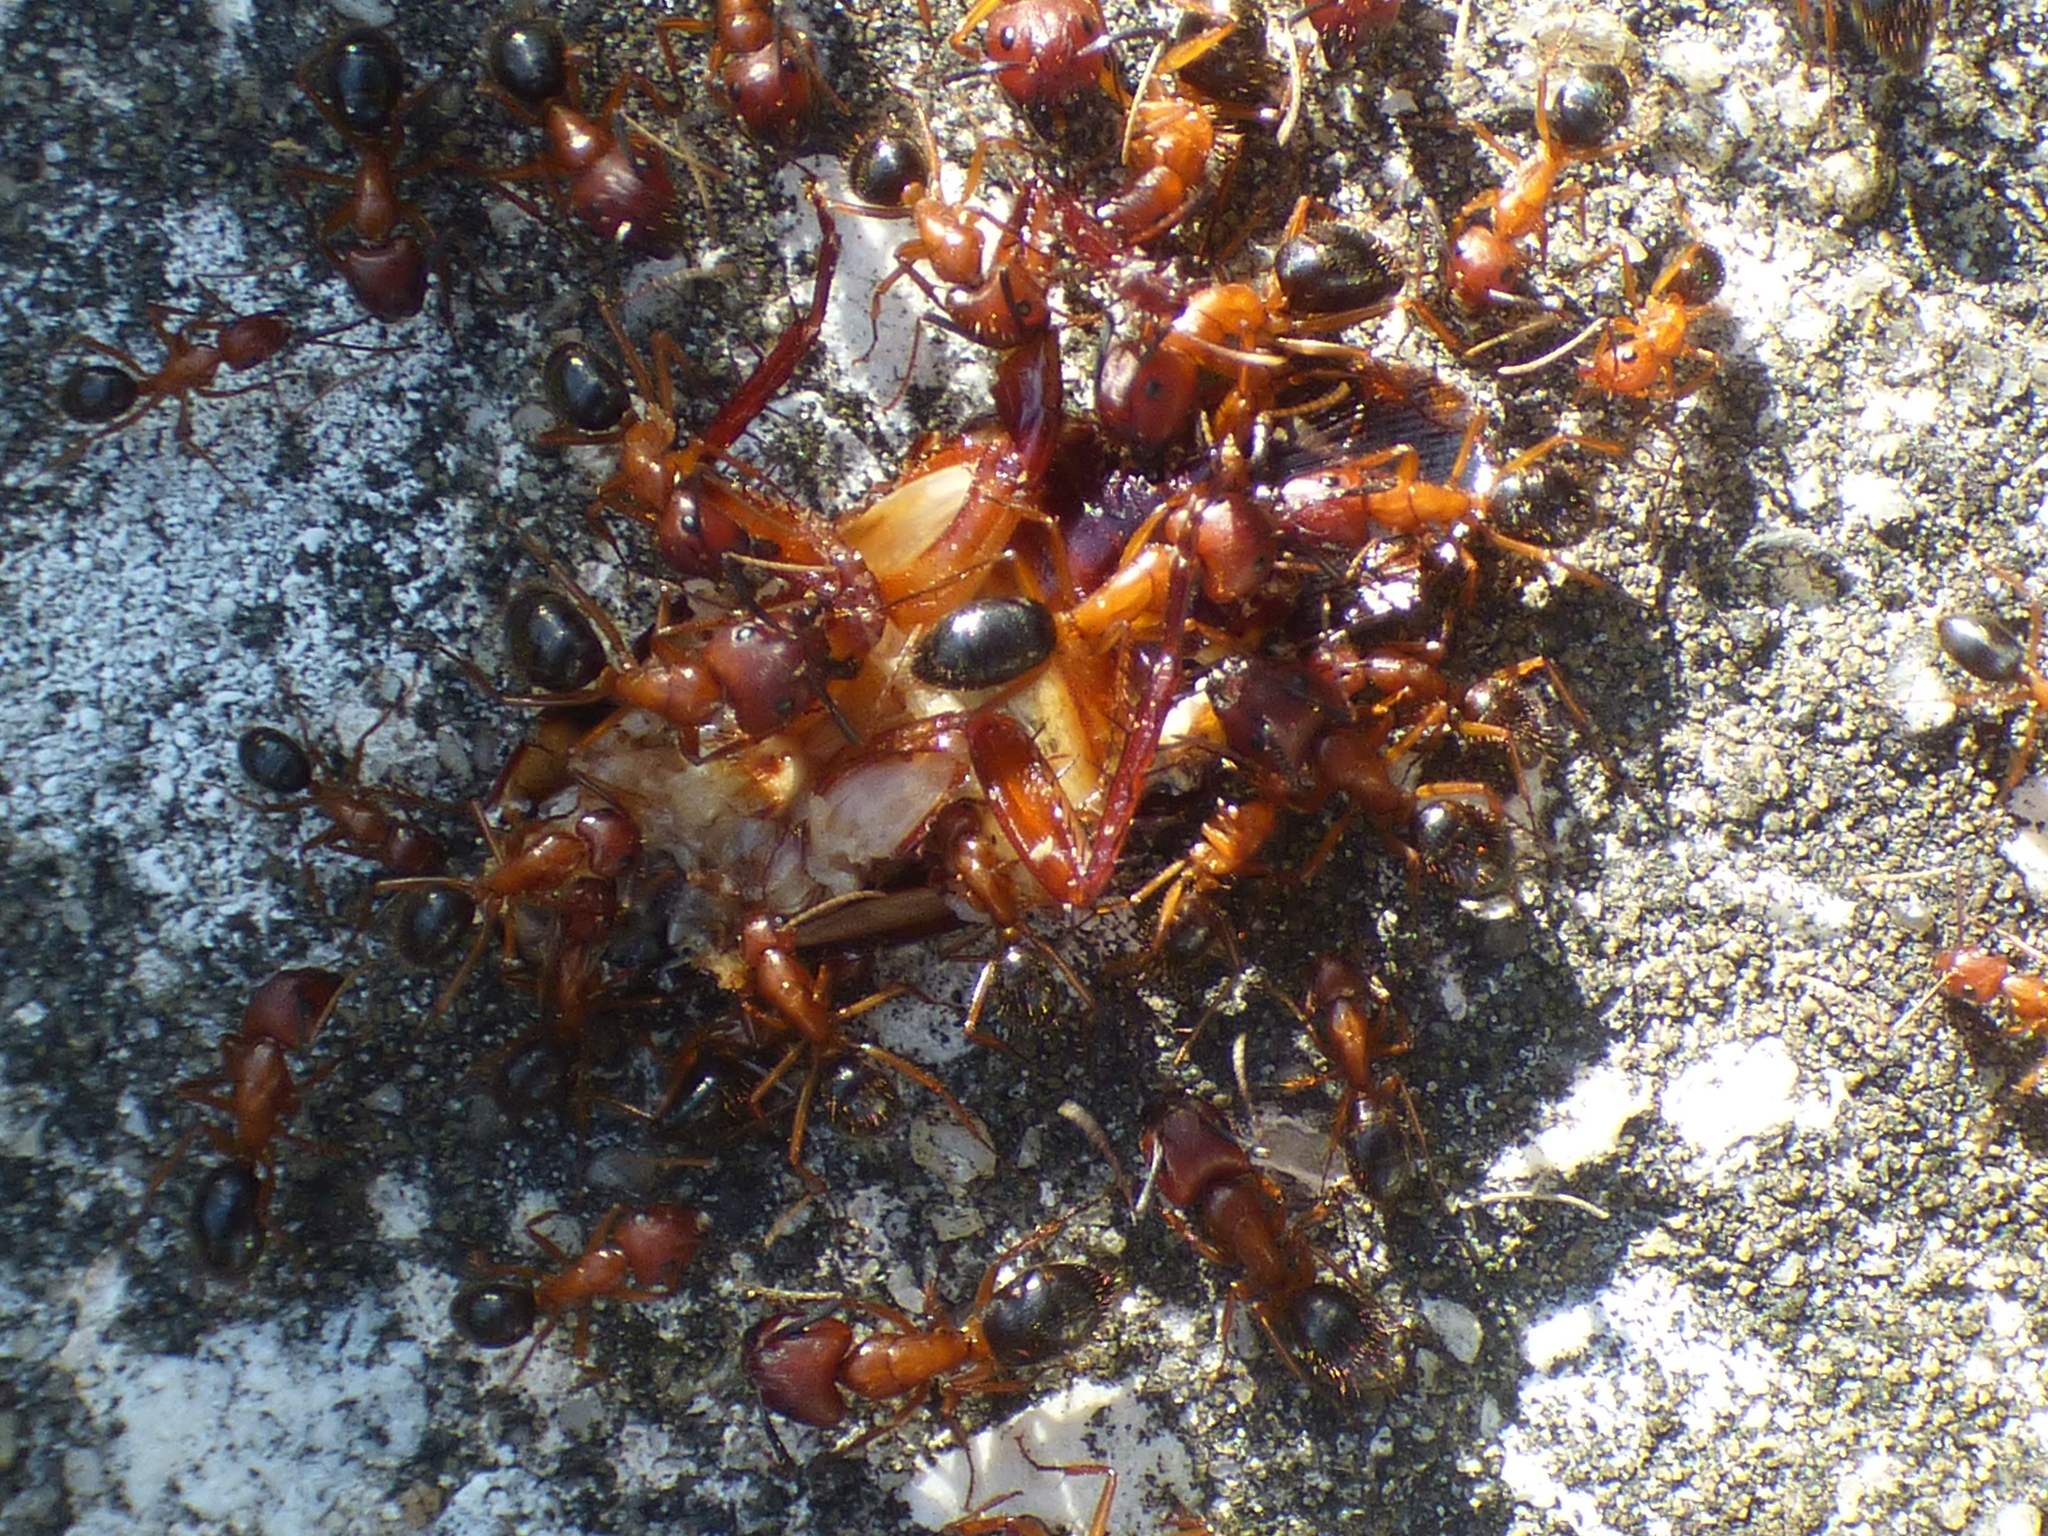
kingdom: Animalia
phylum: Arthropoda
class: Insecta
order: Hymenoptera
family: Formicidae
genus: Camponotus
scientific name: Camponotus floridanus
